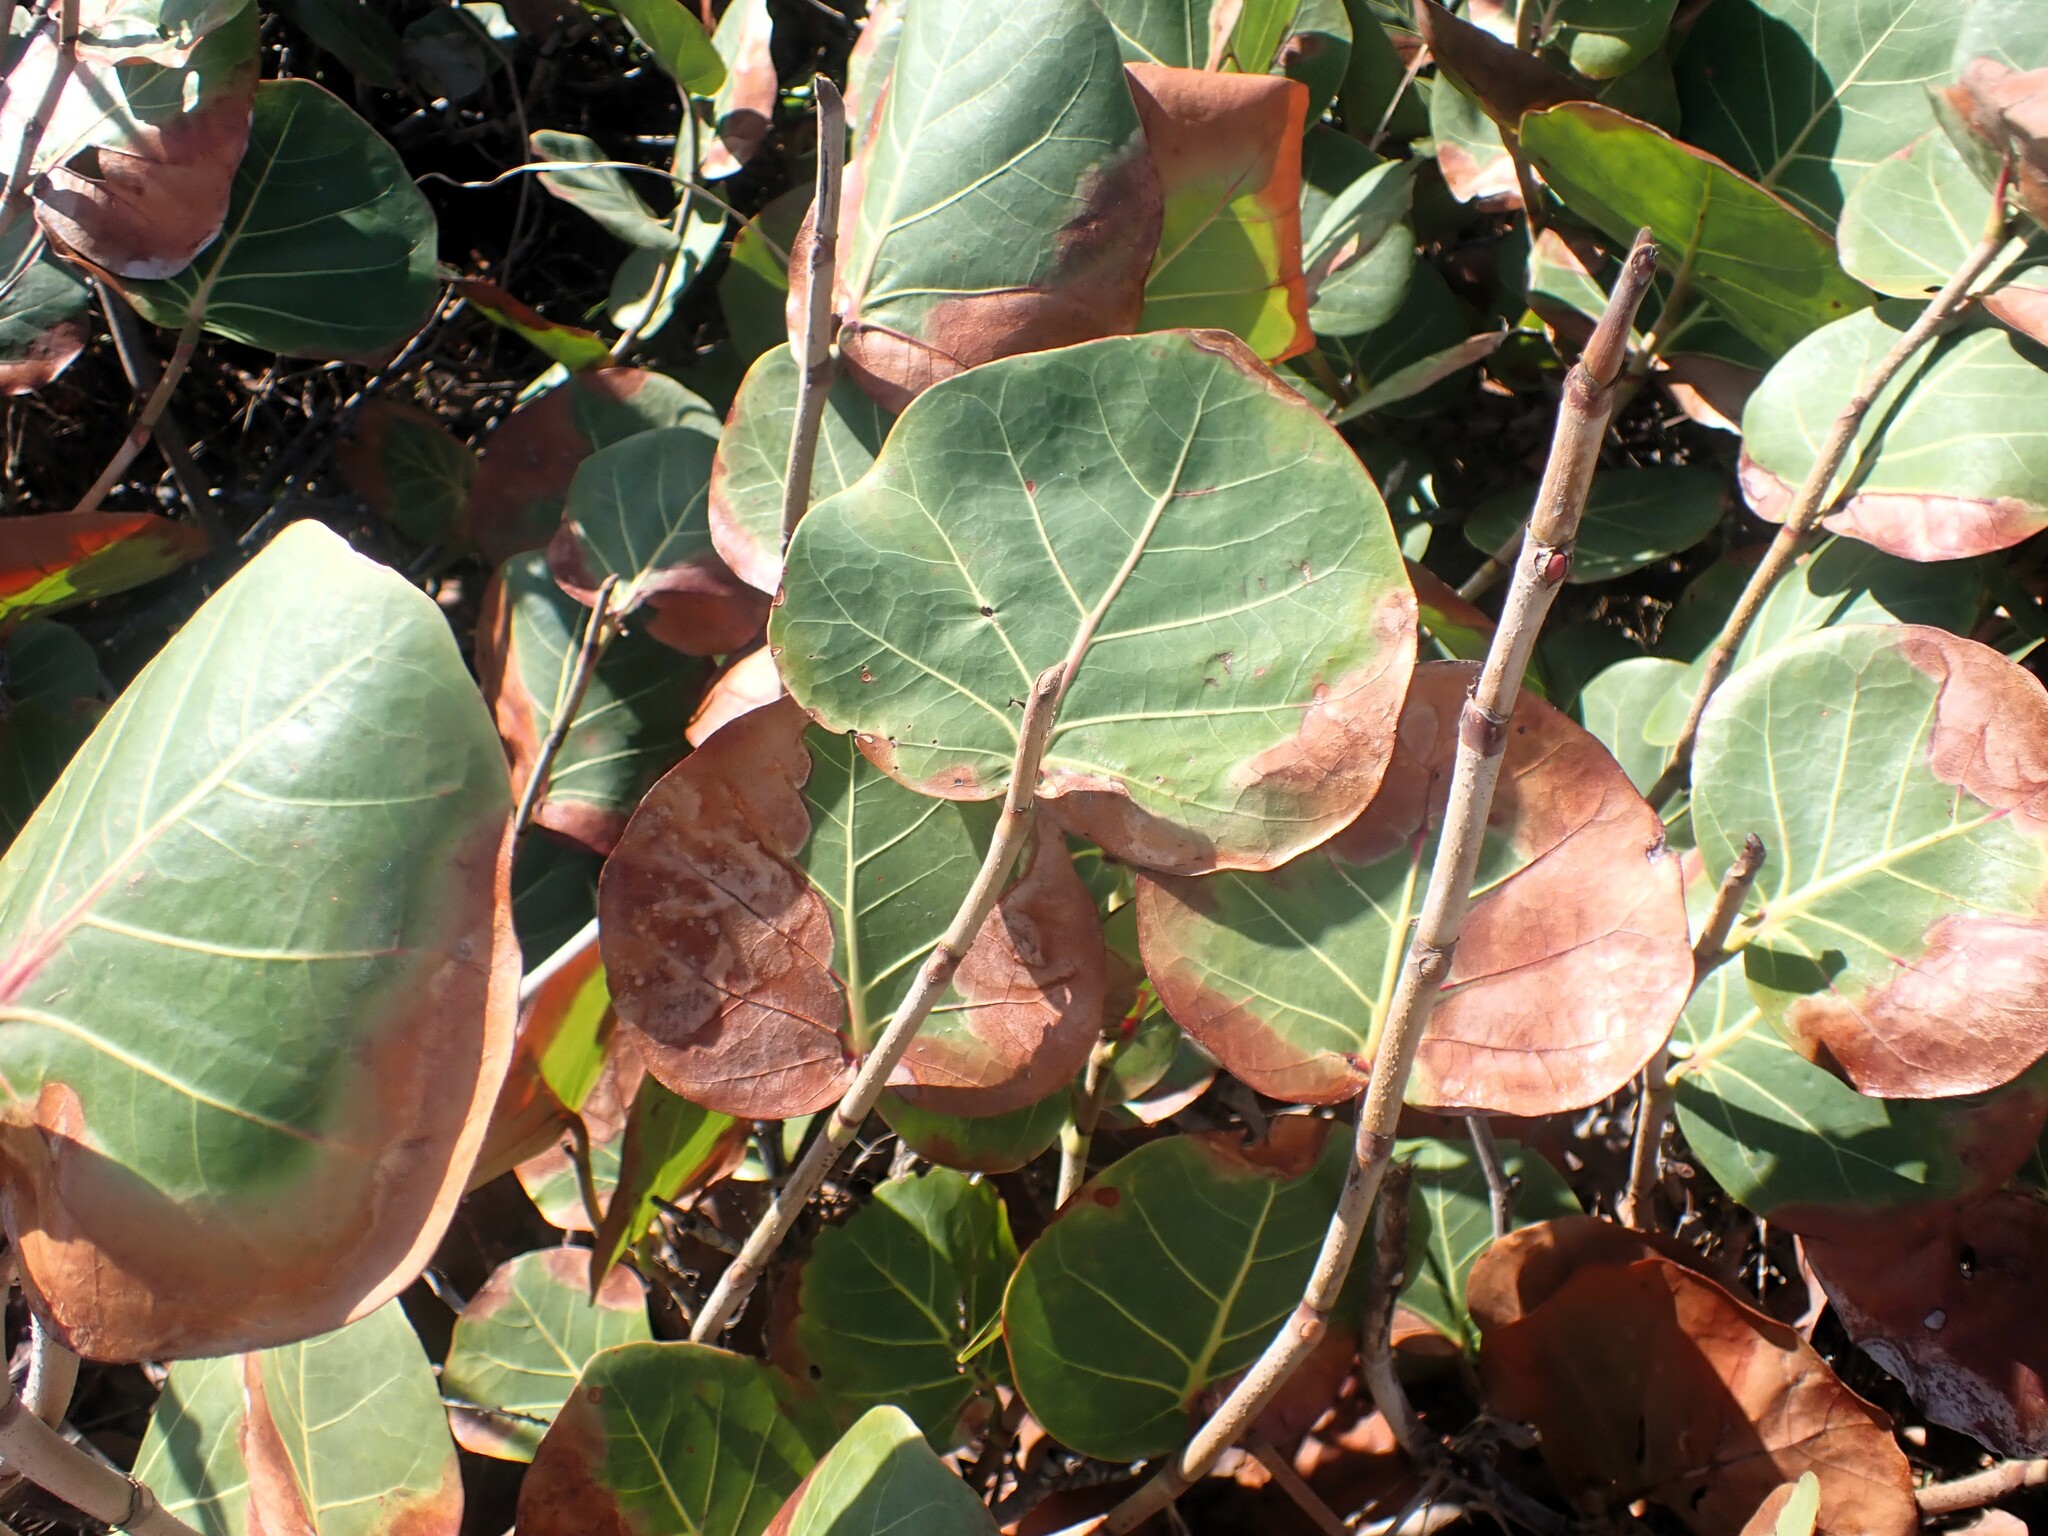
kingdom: Plantae
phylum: Tracheophyta
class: Magnoliopsida
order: Caryophyllales
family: Polygonaceae
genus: Coccoloba
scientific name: Coccoloba uvifera
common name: Seagrape
